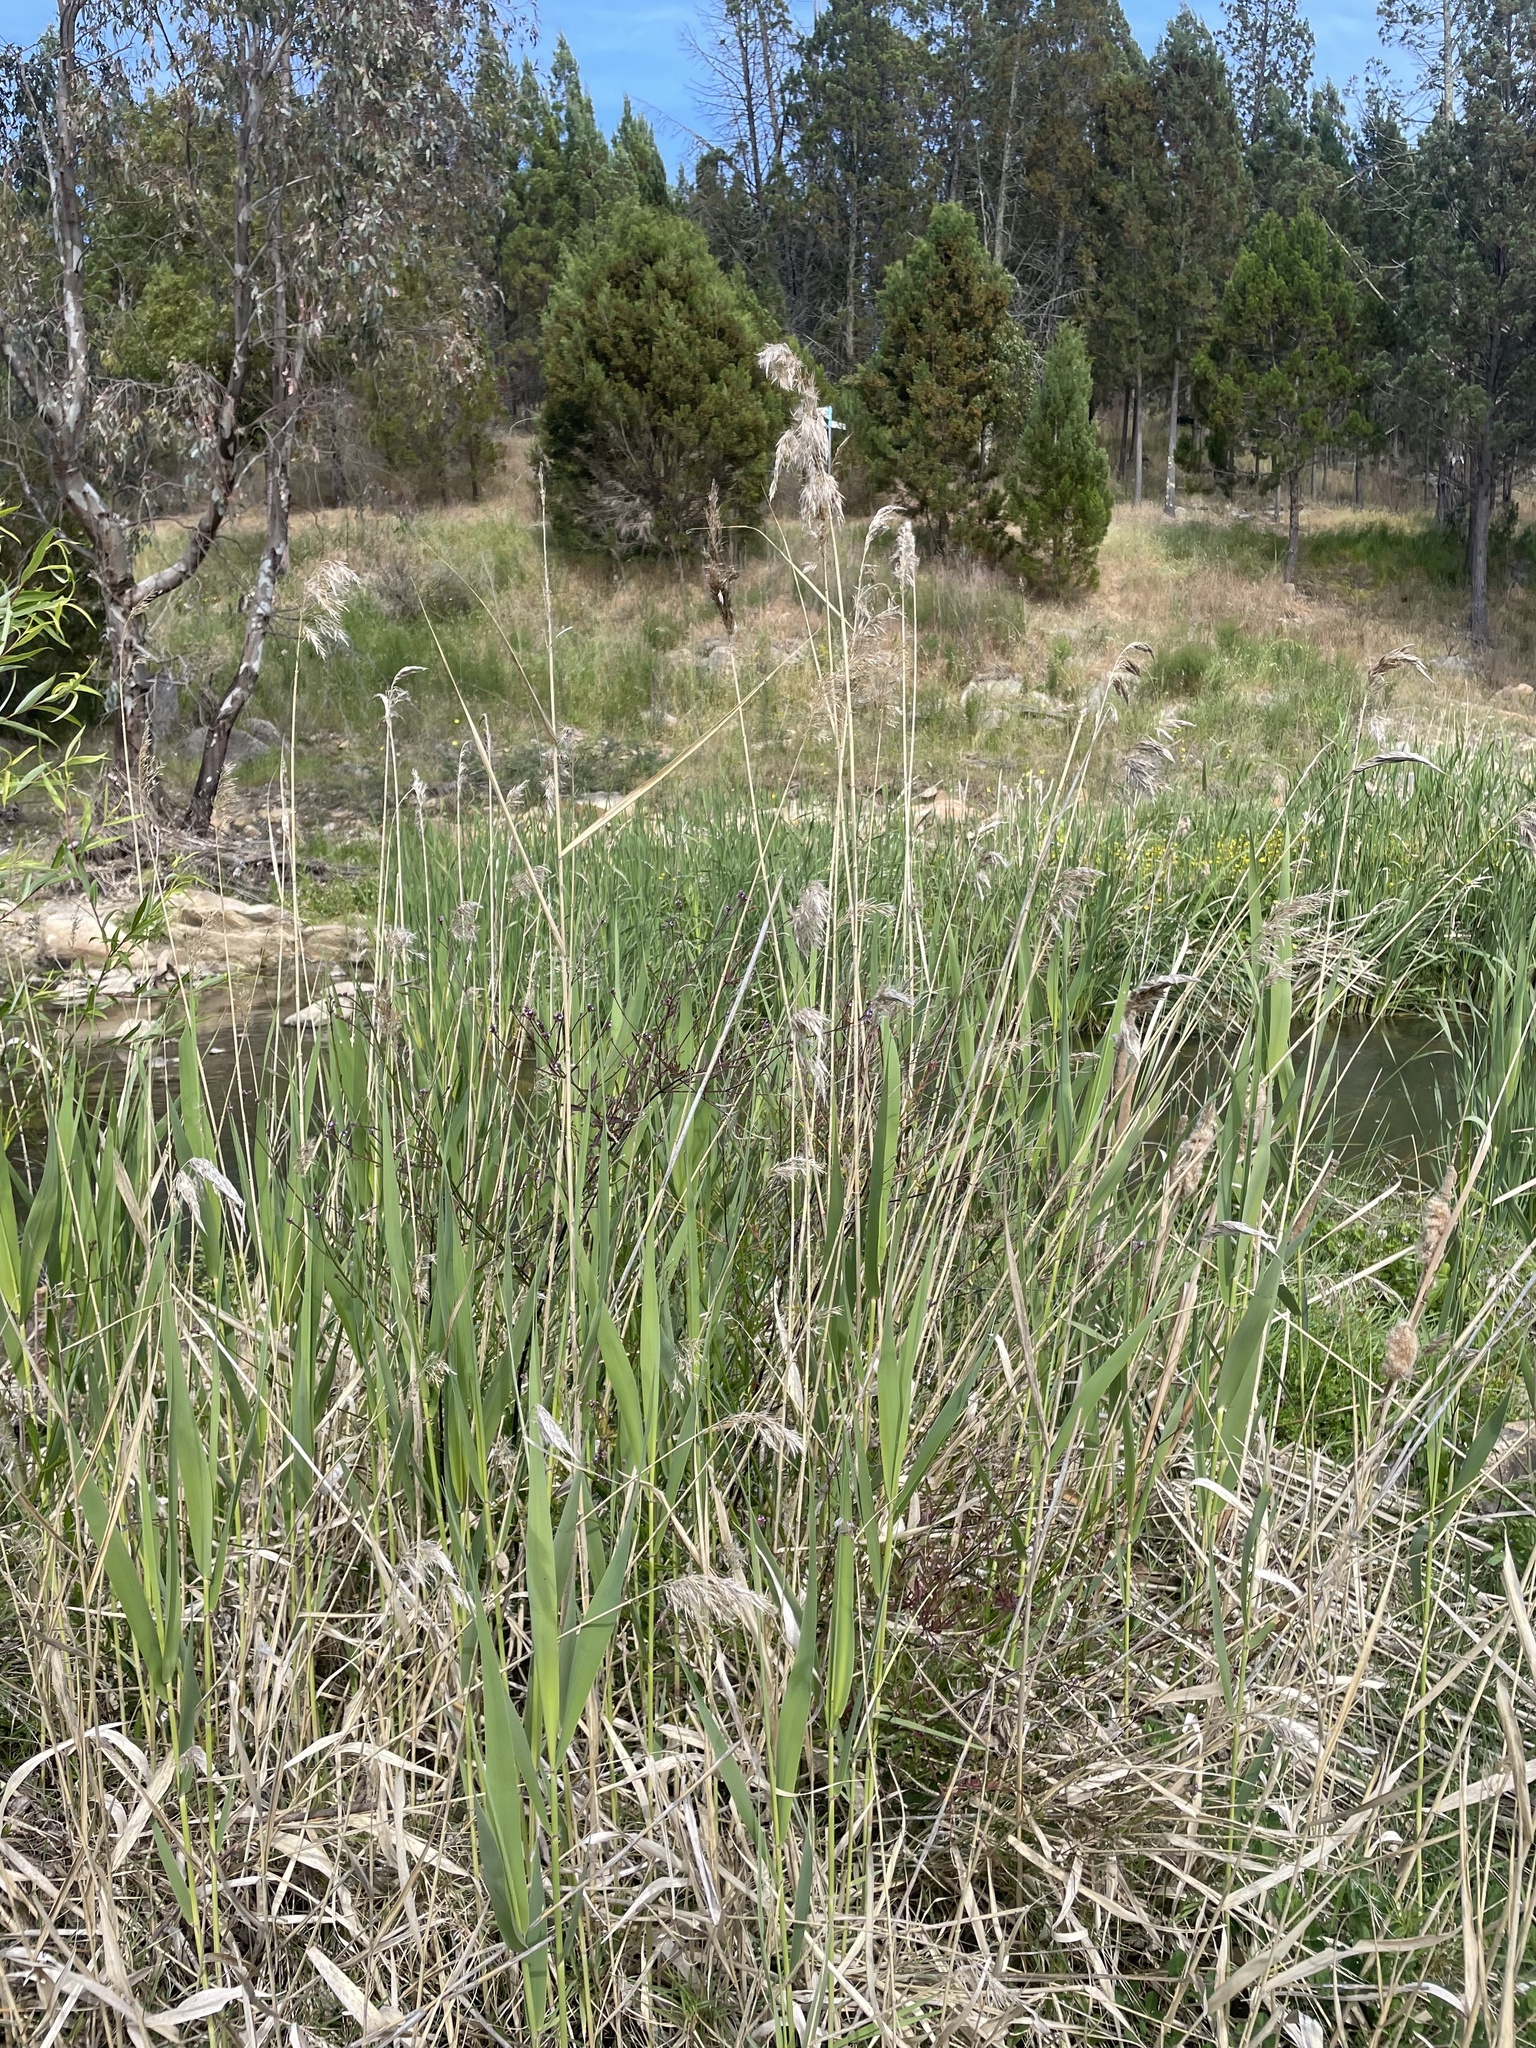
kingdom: Plantae
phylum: Tracheophyta
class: Liliopsida
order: Poales
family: Poaceae
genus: Phragmites
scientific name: Phragmites australis
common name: Common reed
